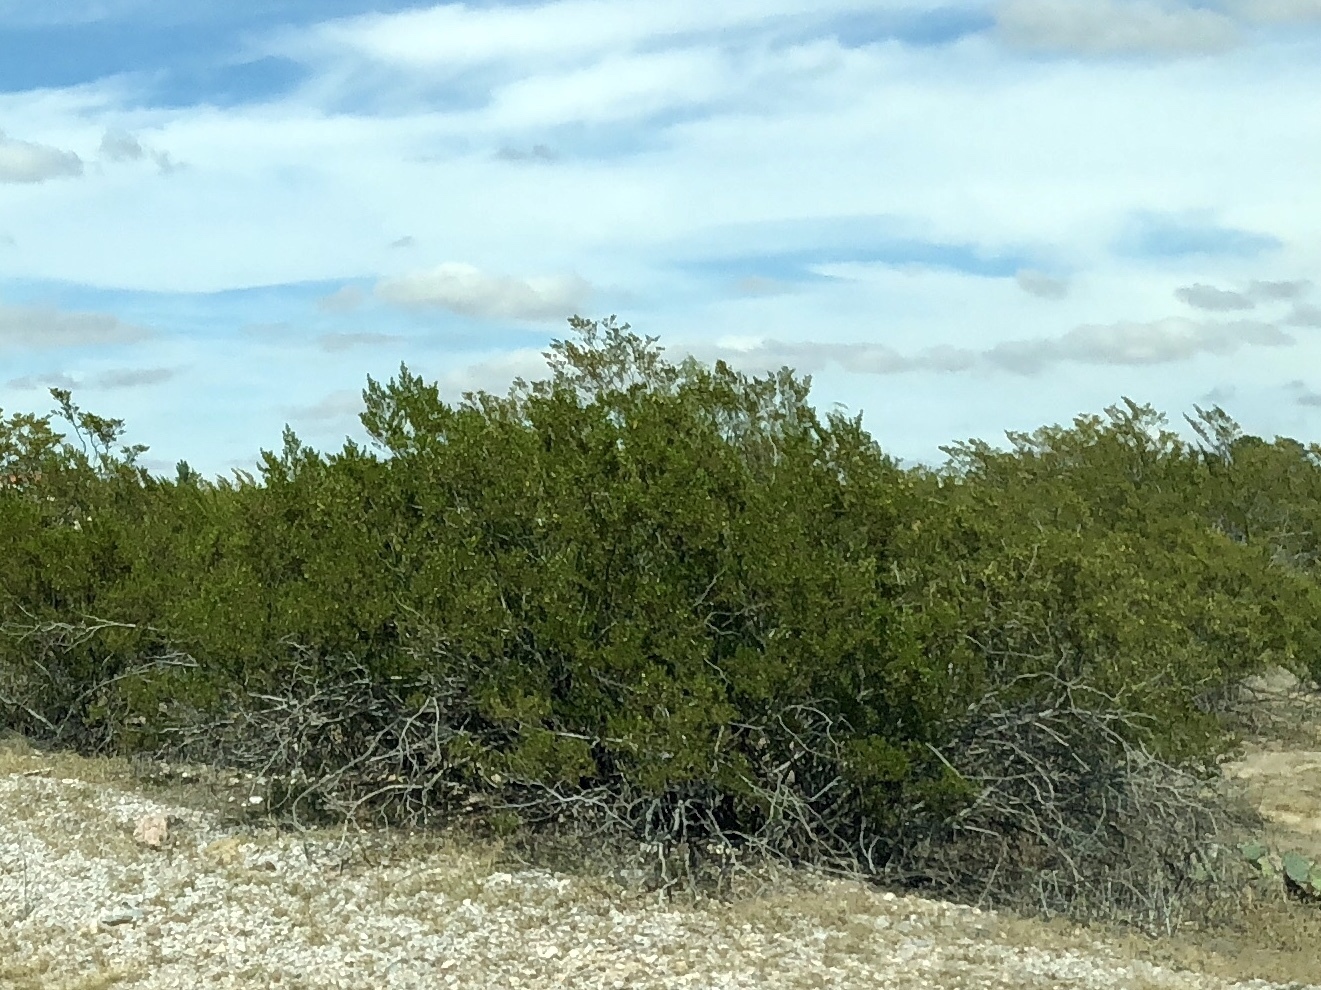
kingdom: Plantae
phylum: Tracheophyta
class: Magnoliopsida
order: Zygophyllales
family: Zygophyllaceae
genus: Larrea
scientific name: Larrea tridentata
